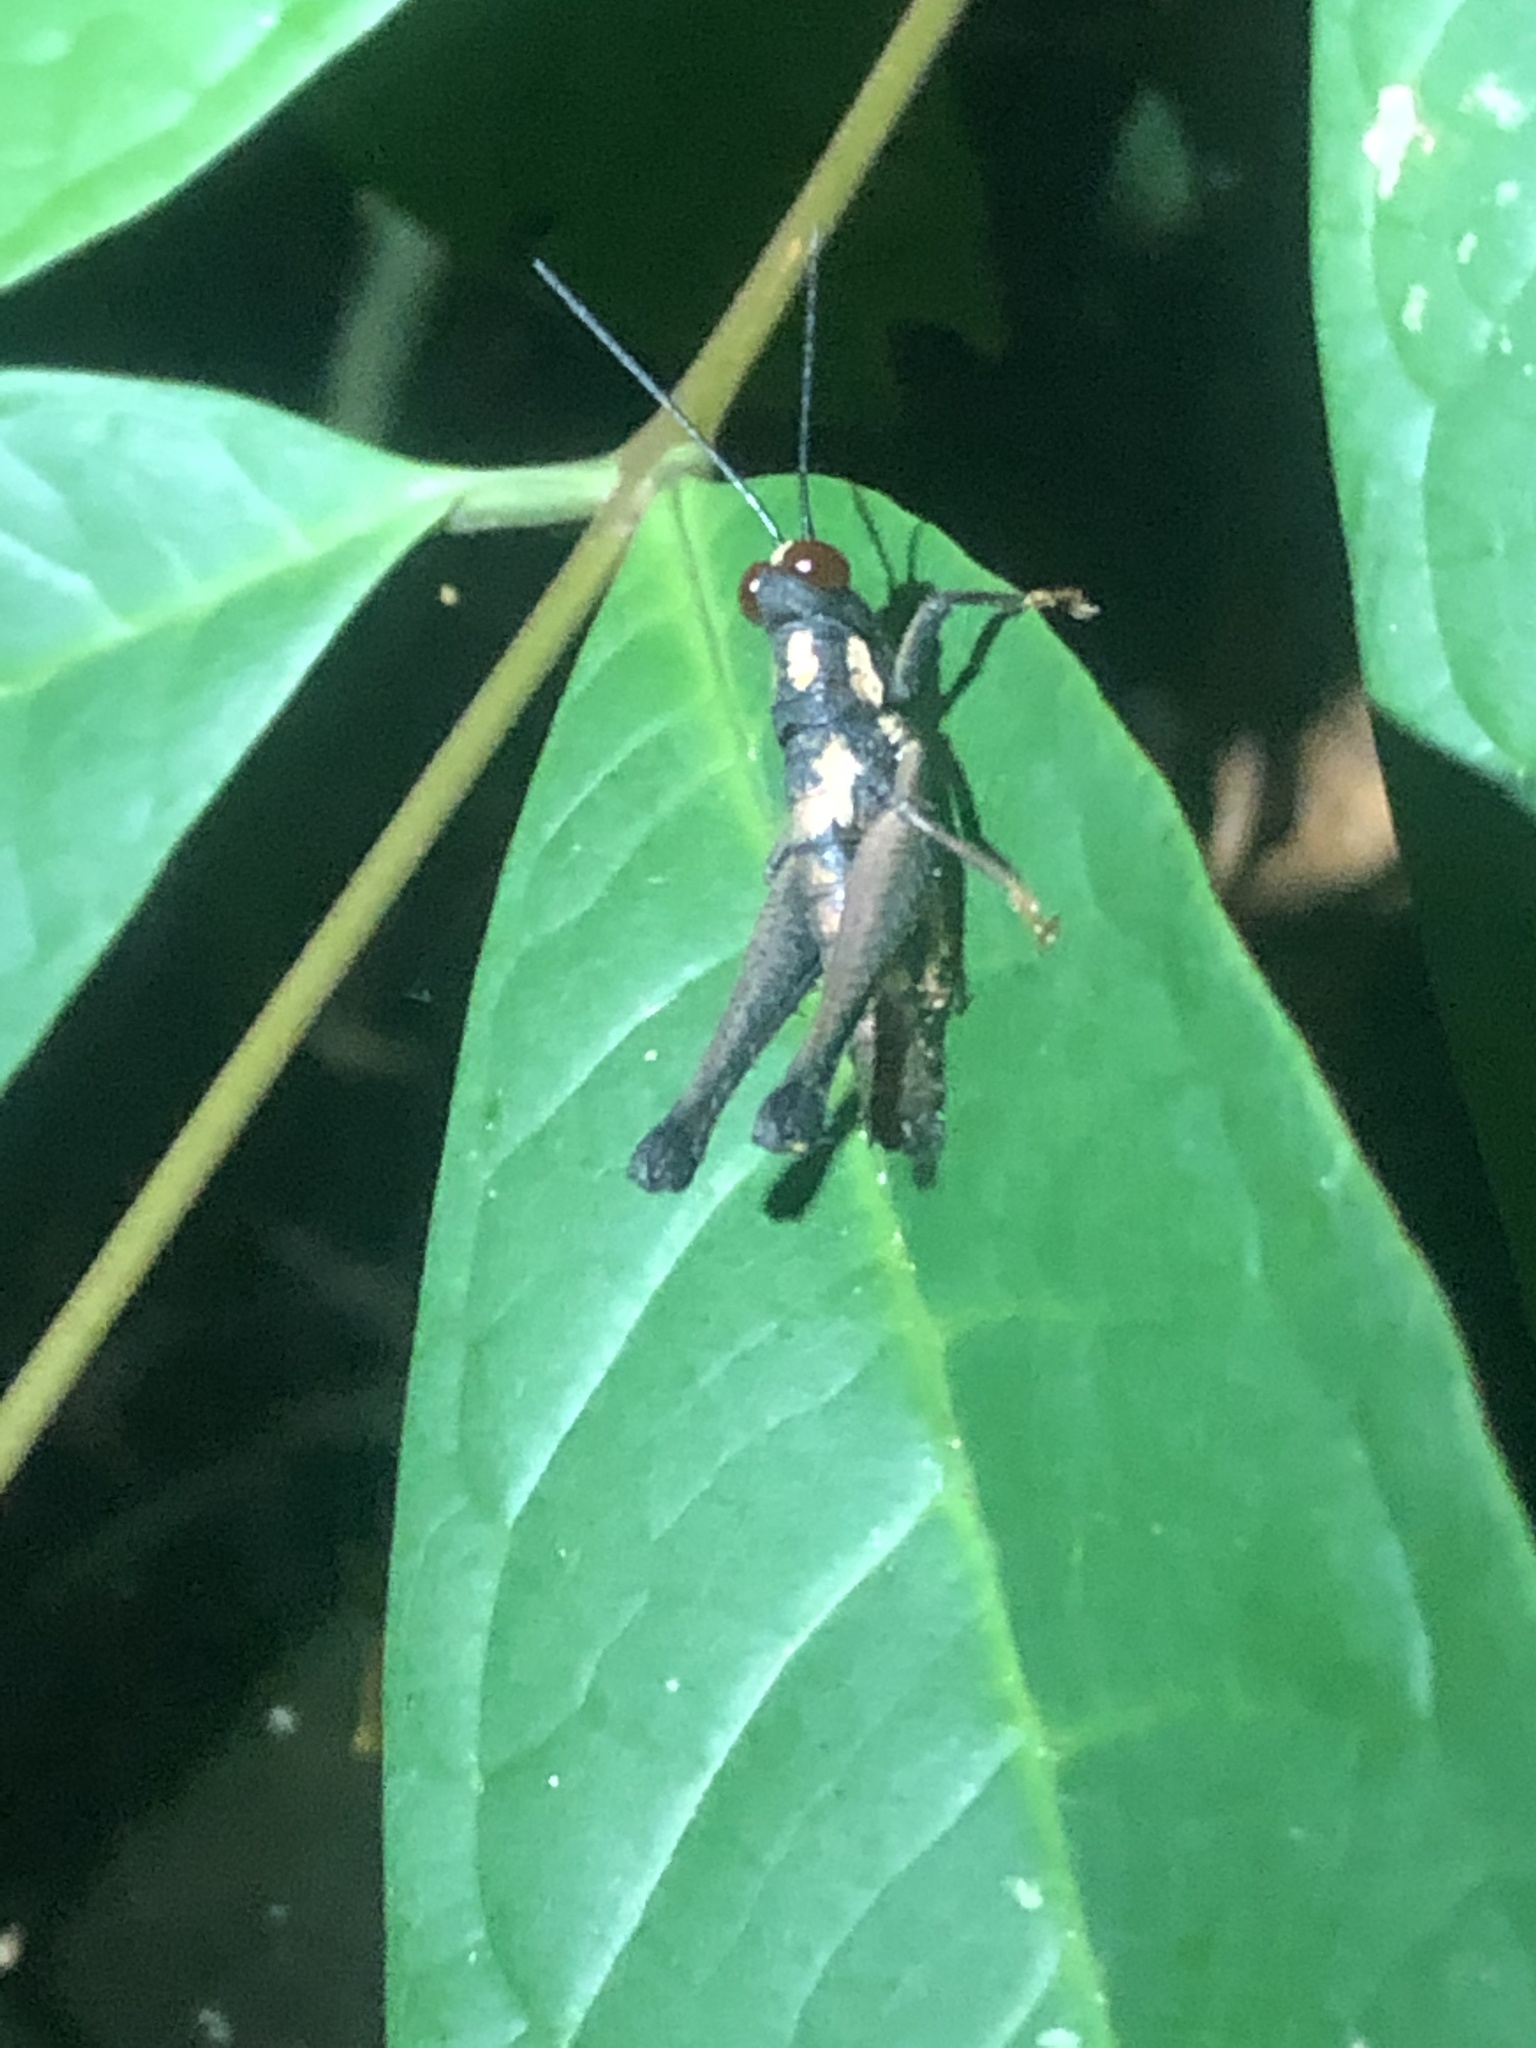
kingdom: Animalia
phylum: Arthropoda
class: Insecta
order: Orthoptera
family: Acrididae
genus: Stenelutracris
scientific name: Stenelutracris lignicola
